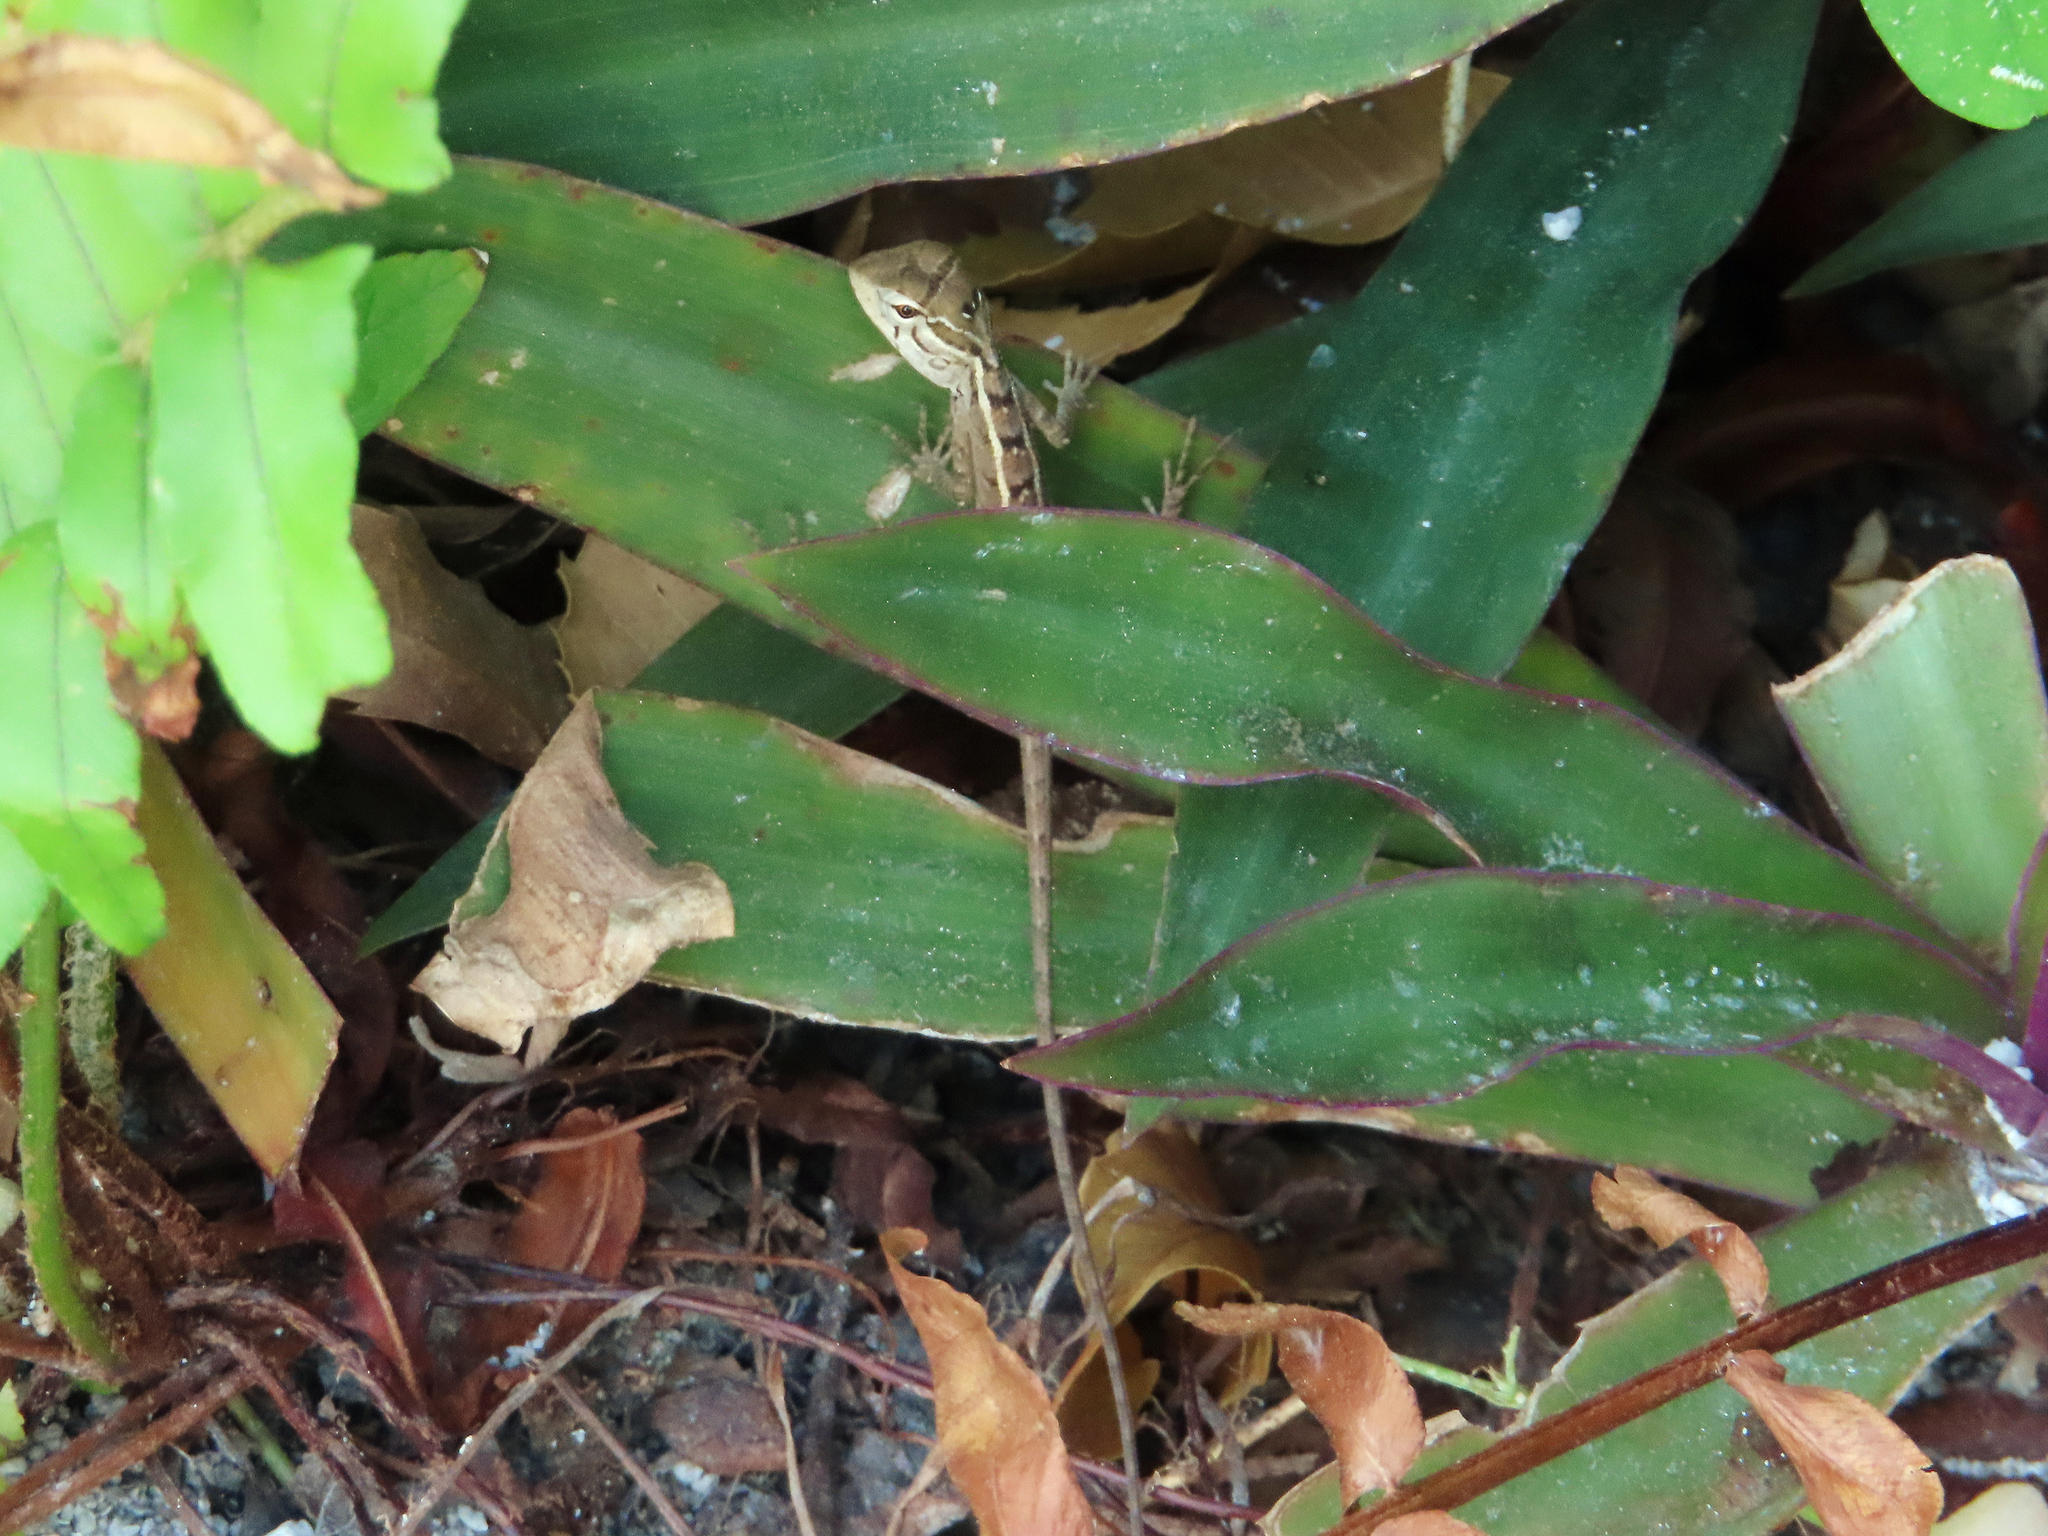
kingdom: Animalia
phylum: Chordata
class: Squamata
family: Agamidae
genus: Calotes
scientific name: Calotes versicolor
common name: Oriental garden lizard
